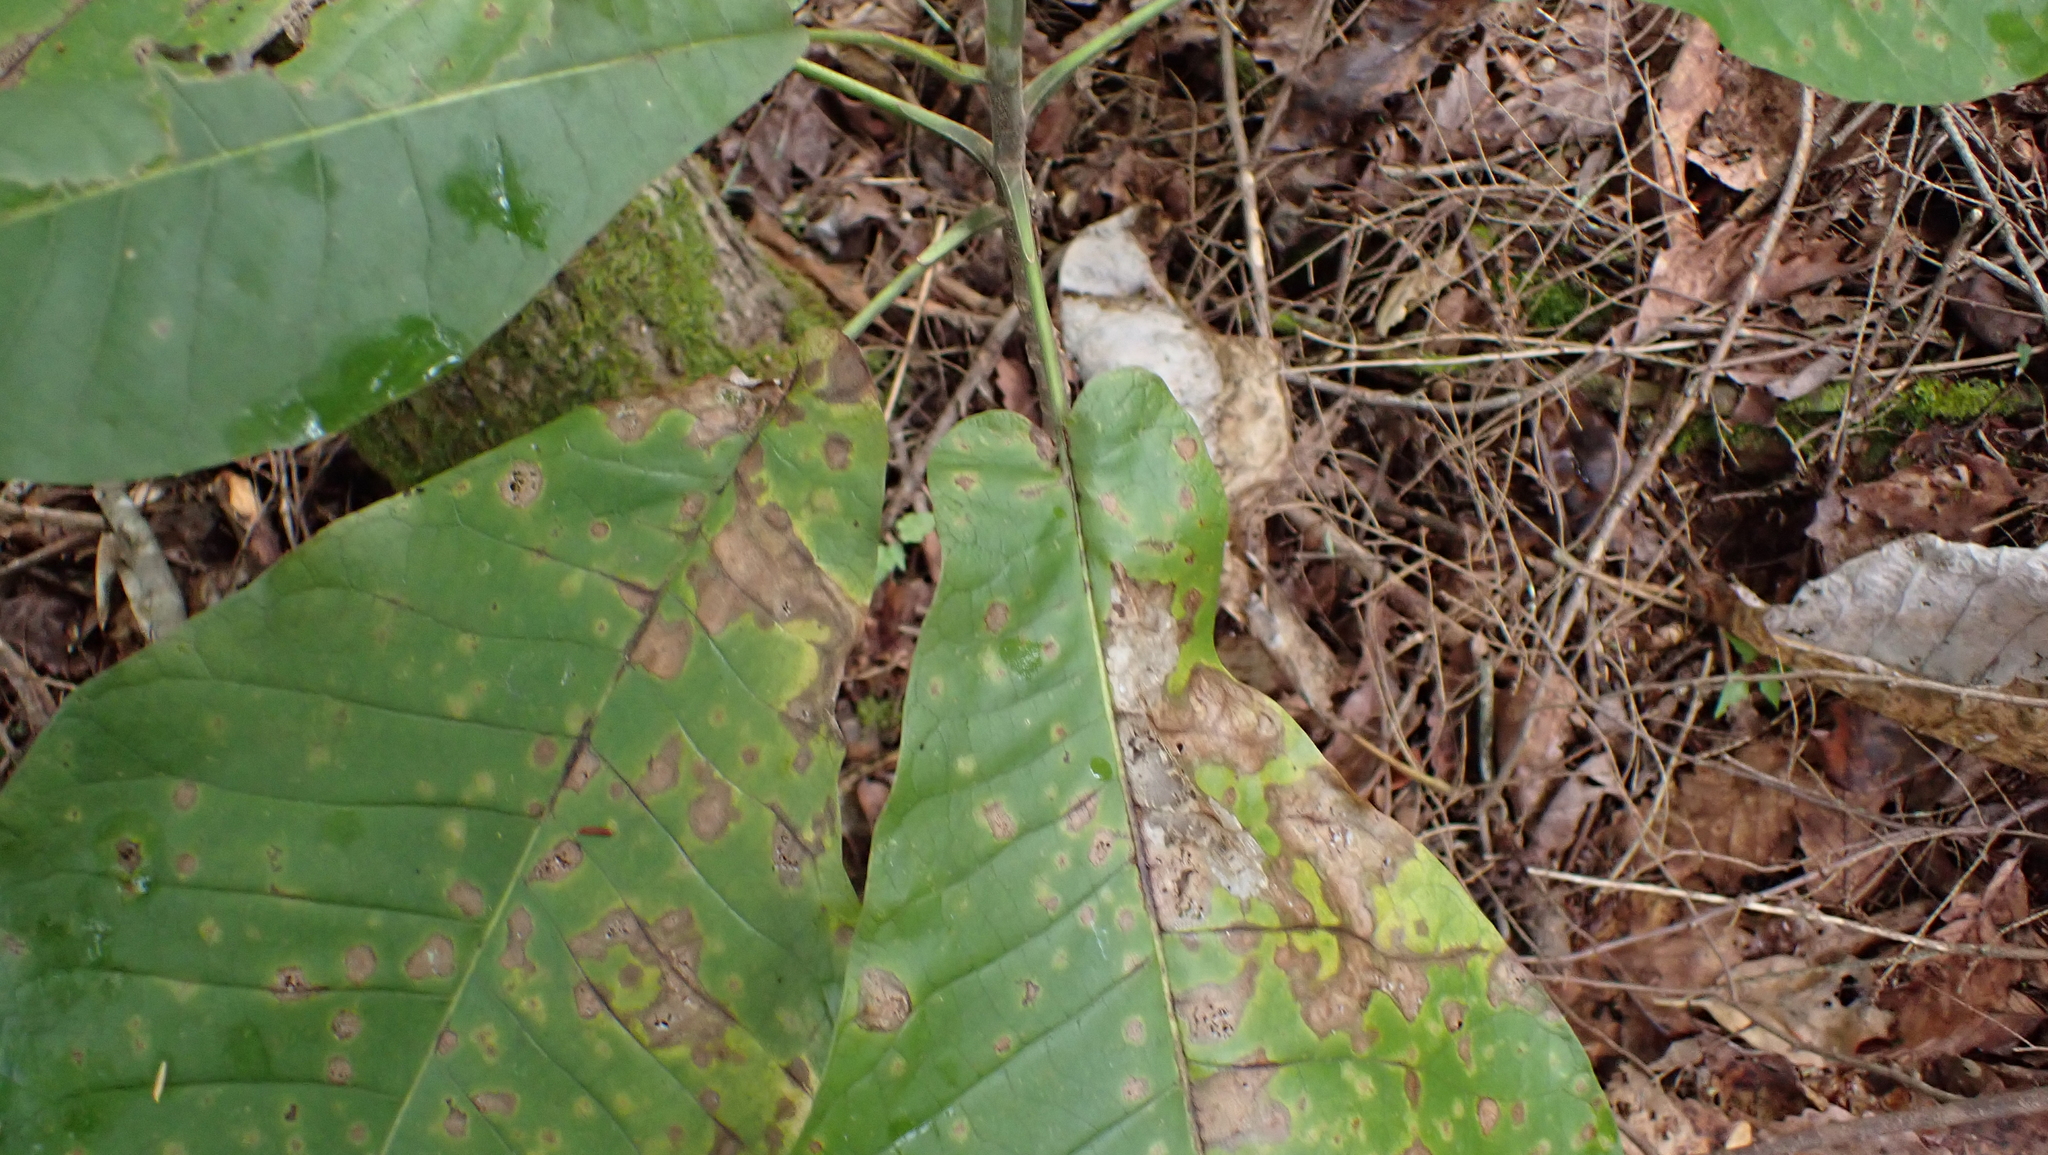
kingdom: Plantae
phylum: Tracheophyta
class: Magnoliopsida
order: Magnoliales
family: Magnoliaceae
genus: Magnolia
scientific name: Magnolia macrophylla
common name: Big-leaf magnolia
